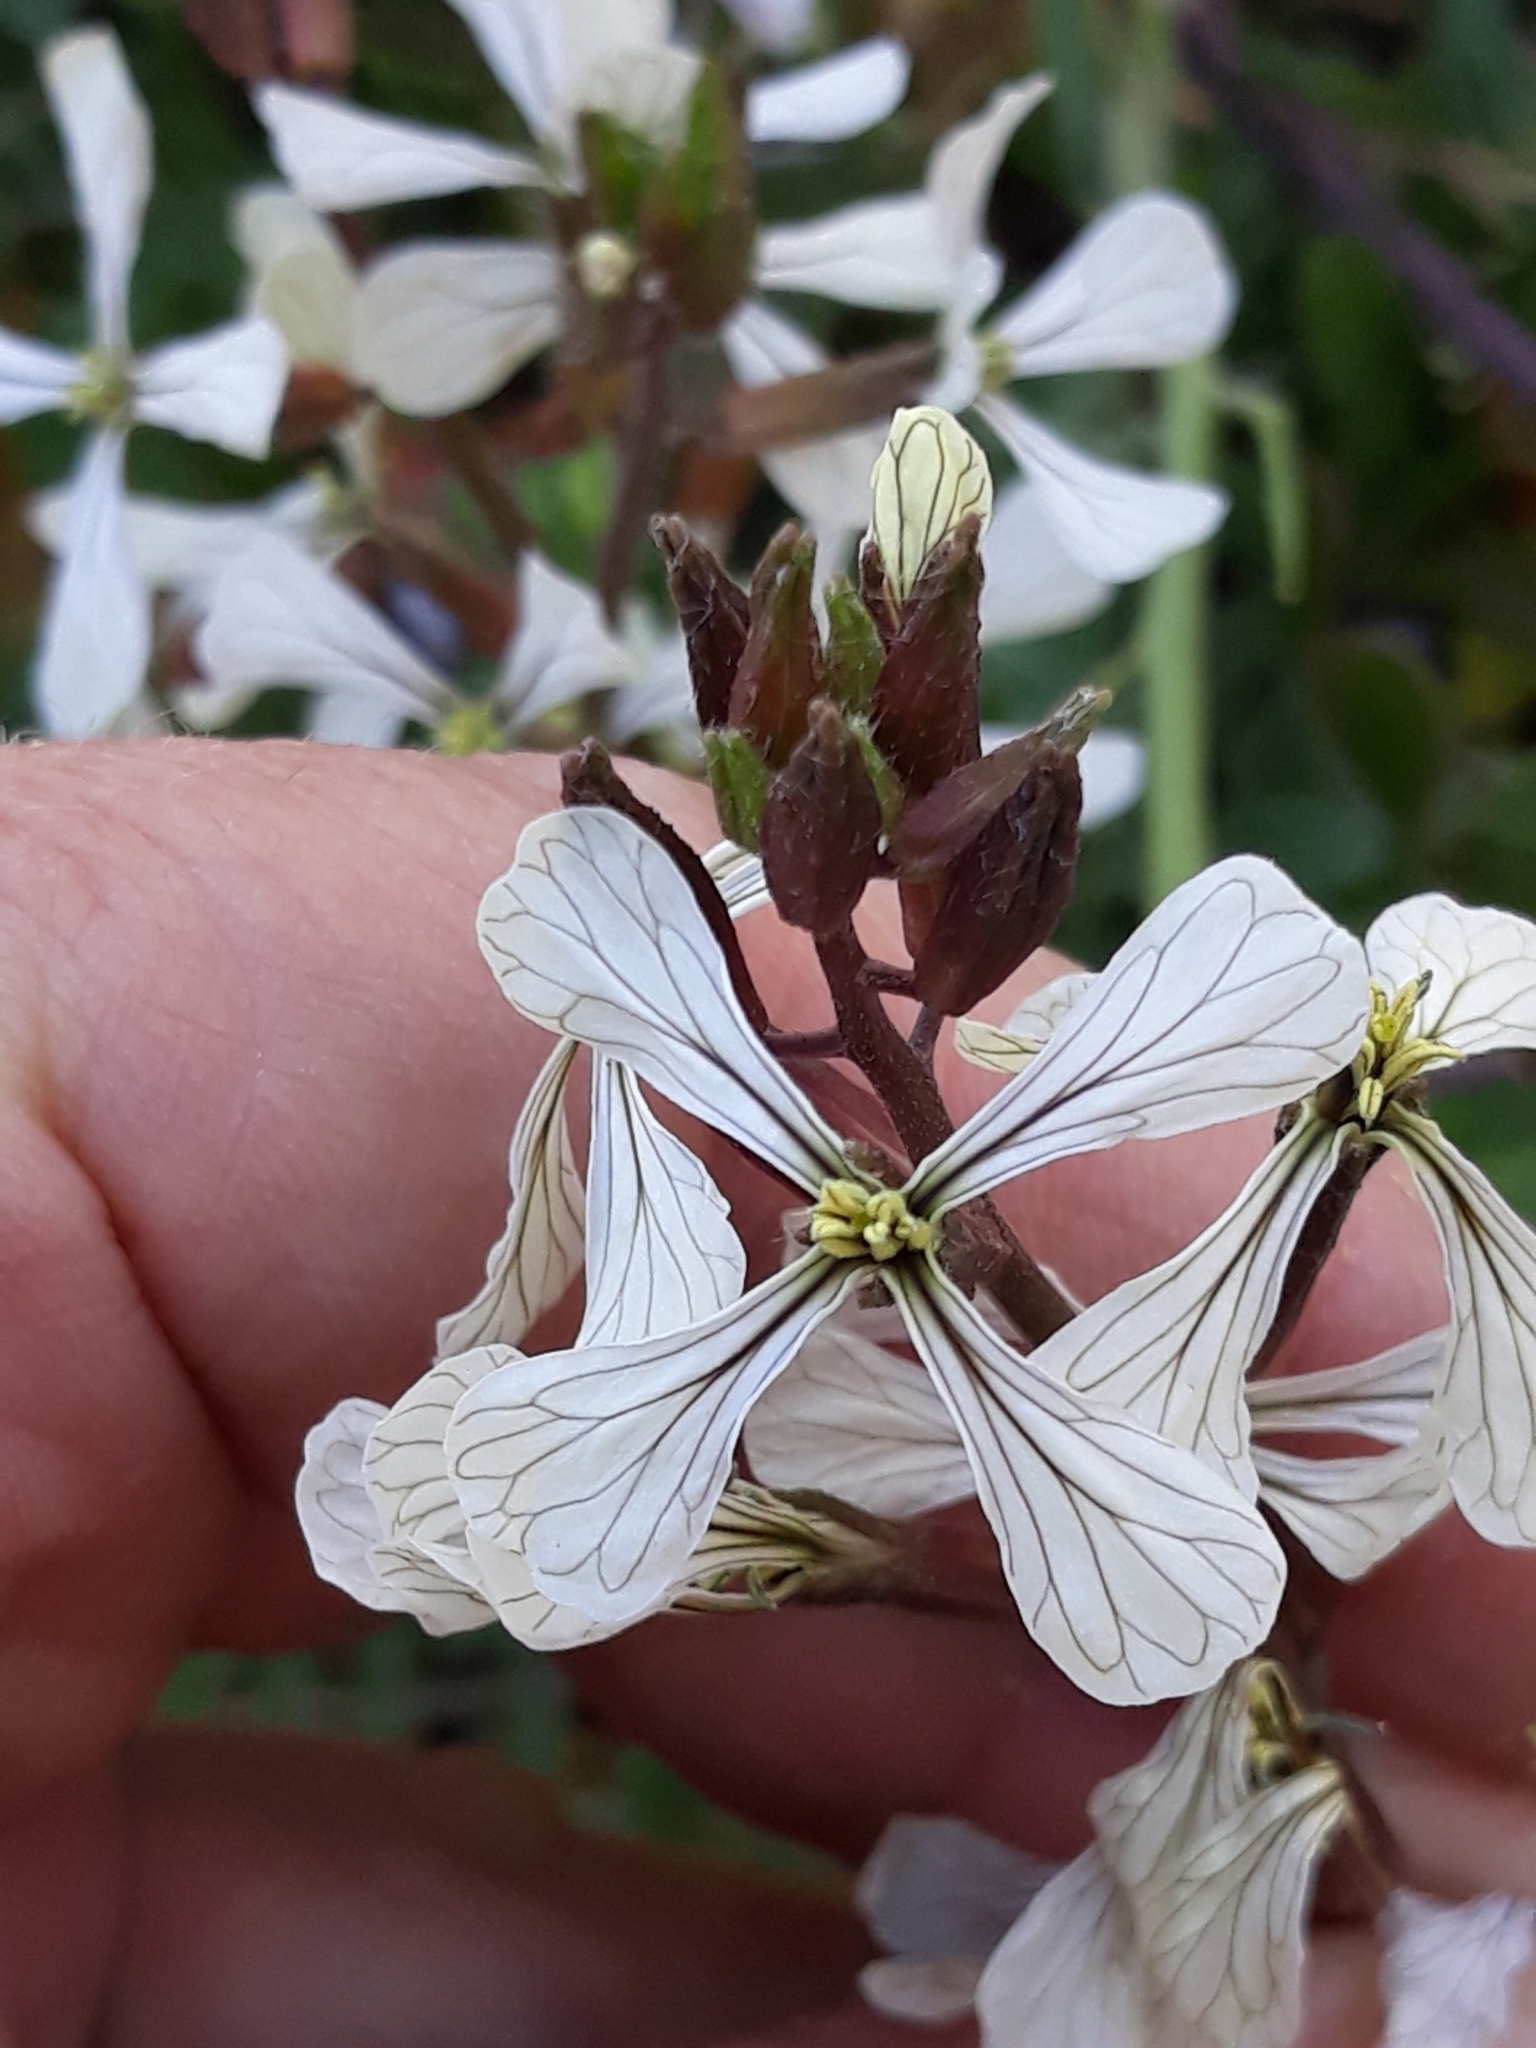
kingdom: Plantae
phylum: Tracheophyta
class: Magnoliopsida
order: Brassicales
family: Brassicaceae
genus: Eruca
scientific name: Eruca vesicaria
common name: Garden rocket
